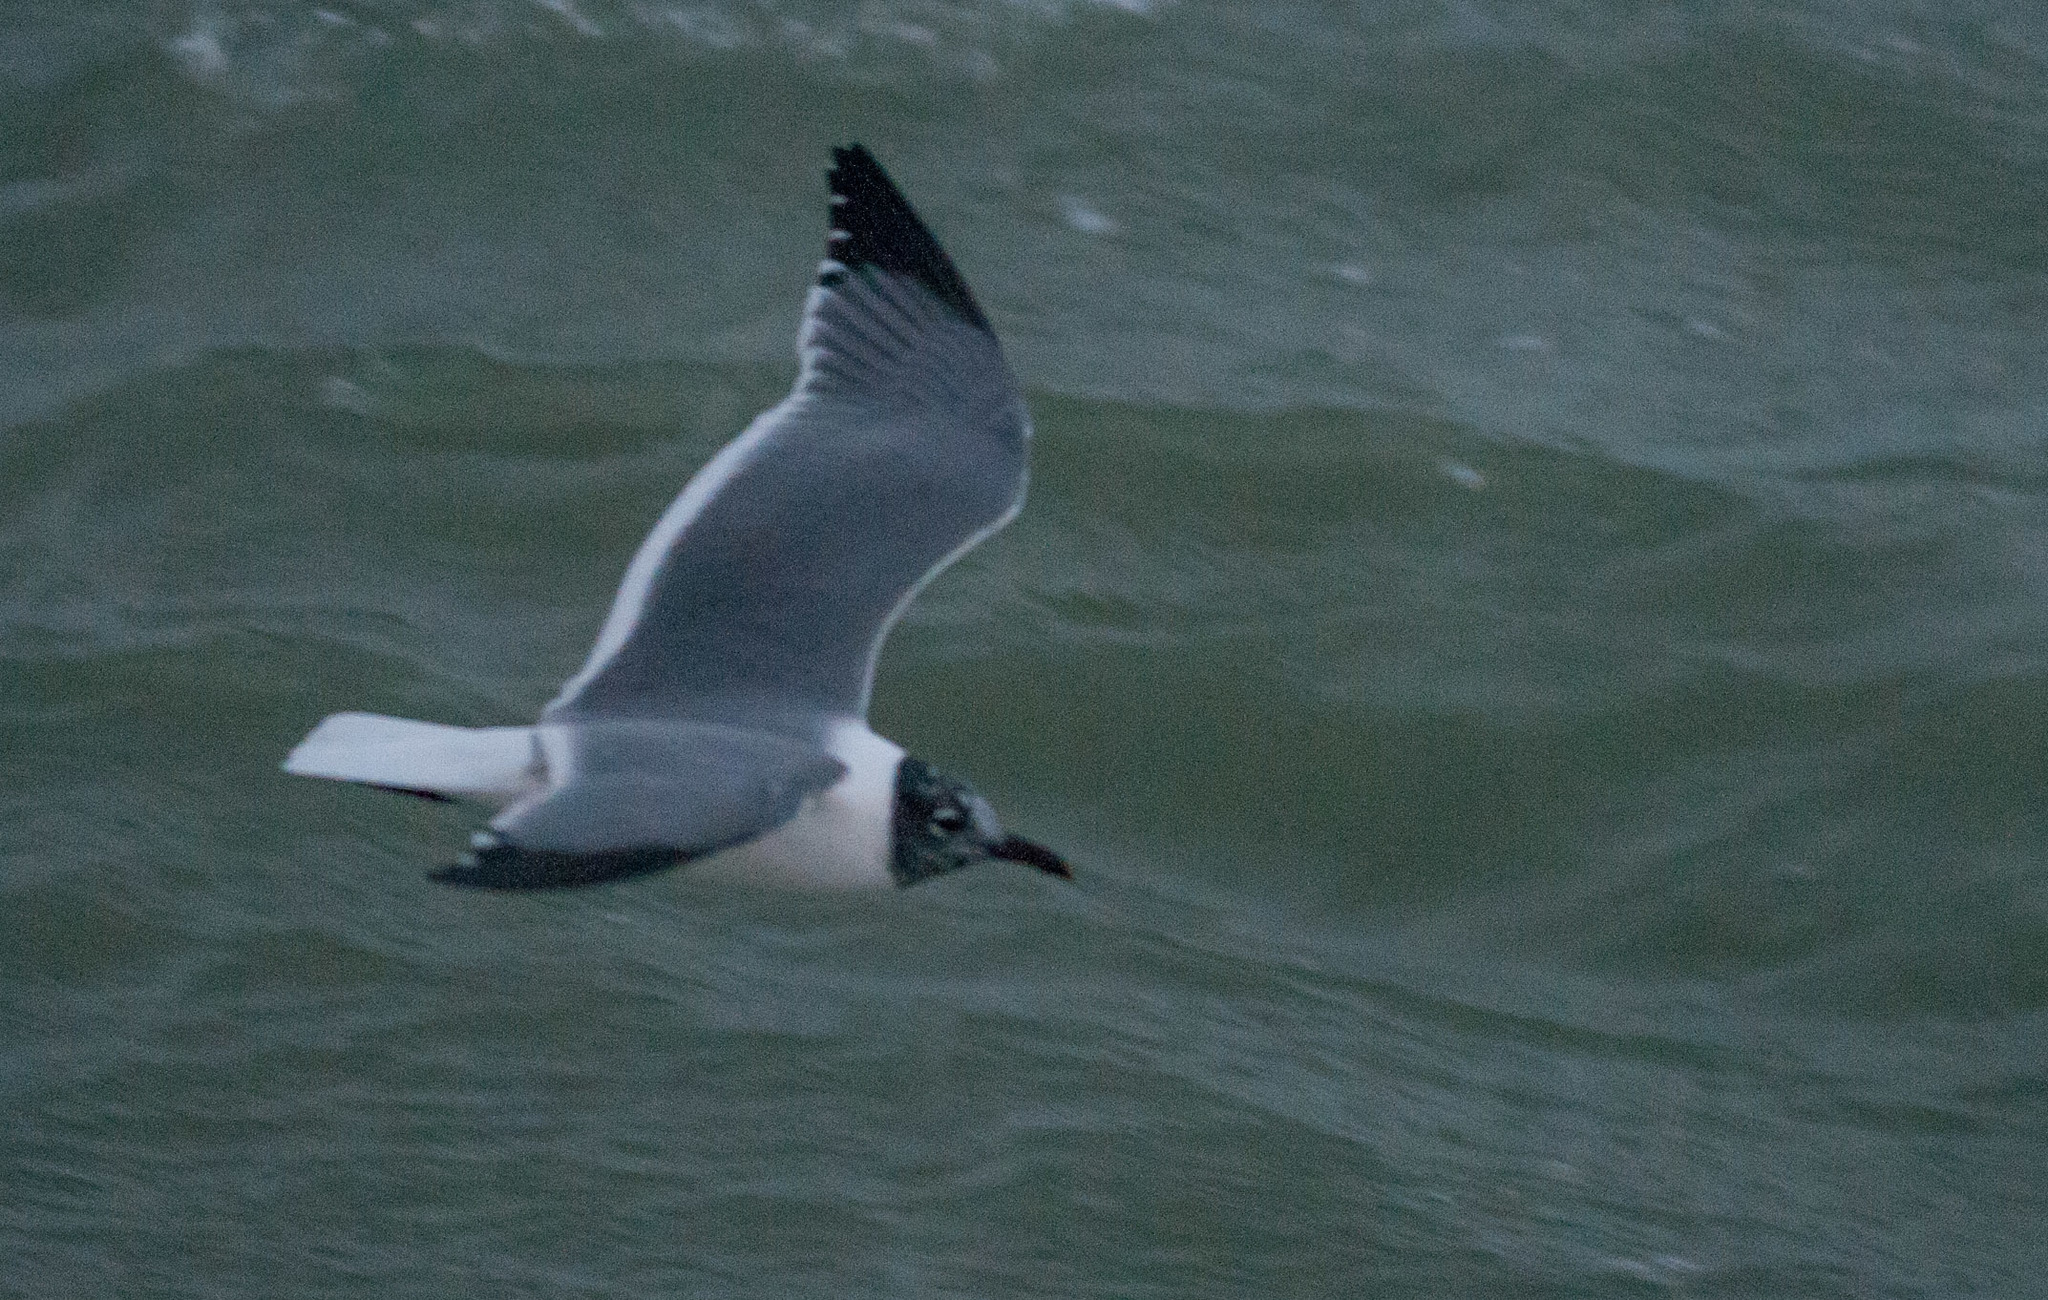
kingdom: Animalia
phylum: Chordata
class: Aves
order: Charadriiformes
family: Laridae
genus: Leucophaeus
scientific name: Leucophaeus atricilla
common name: Laughing gull
